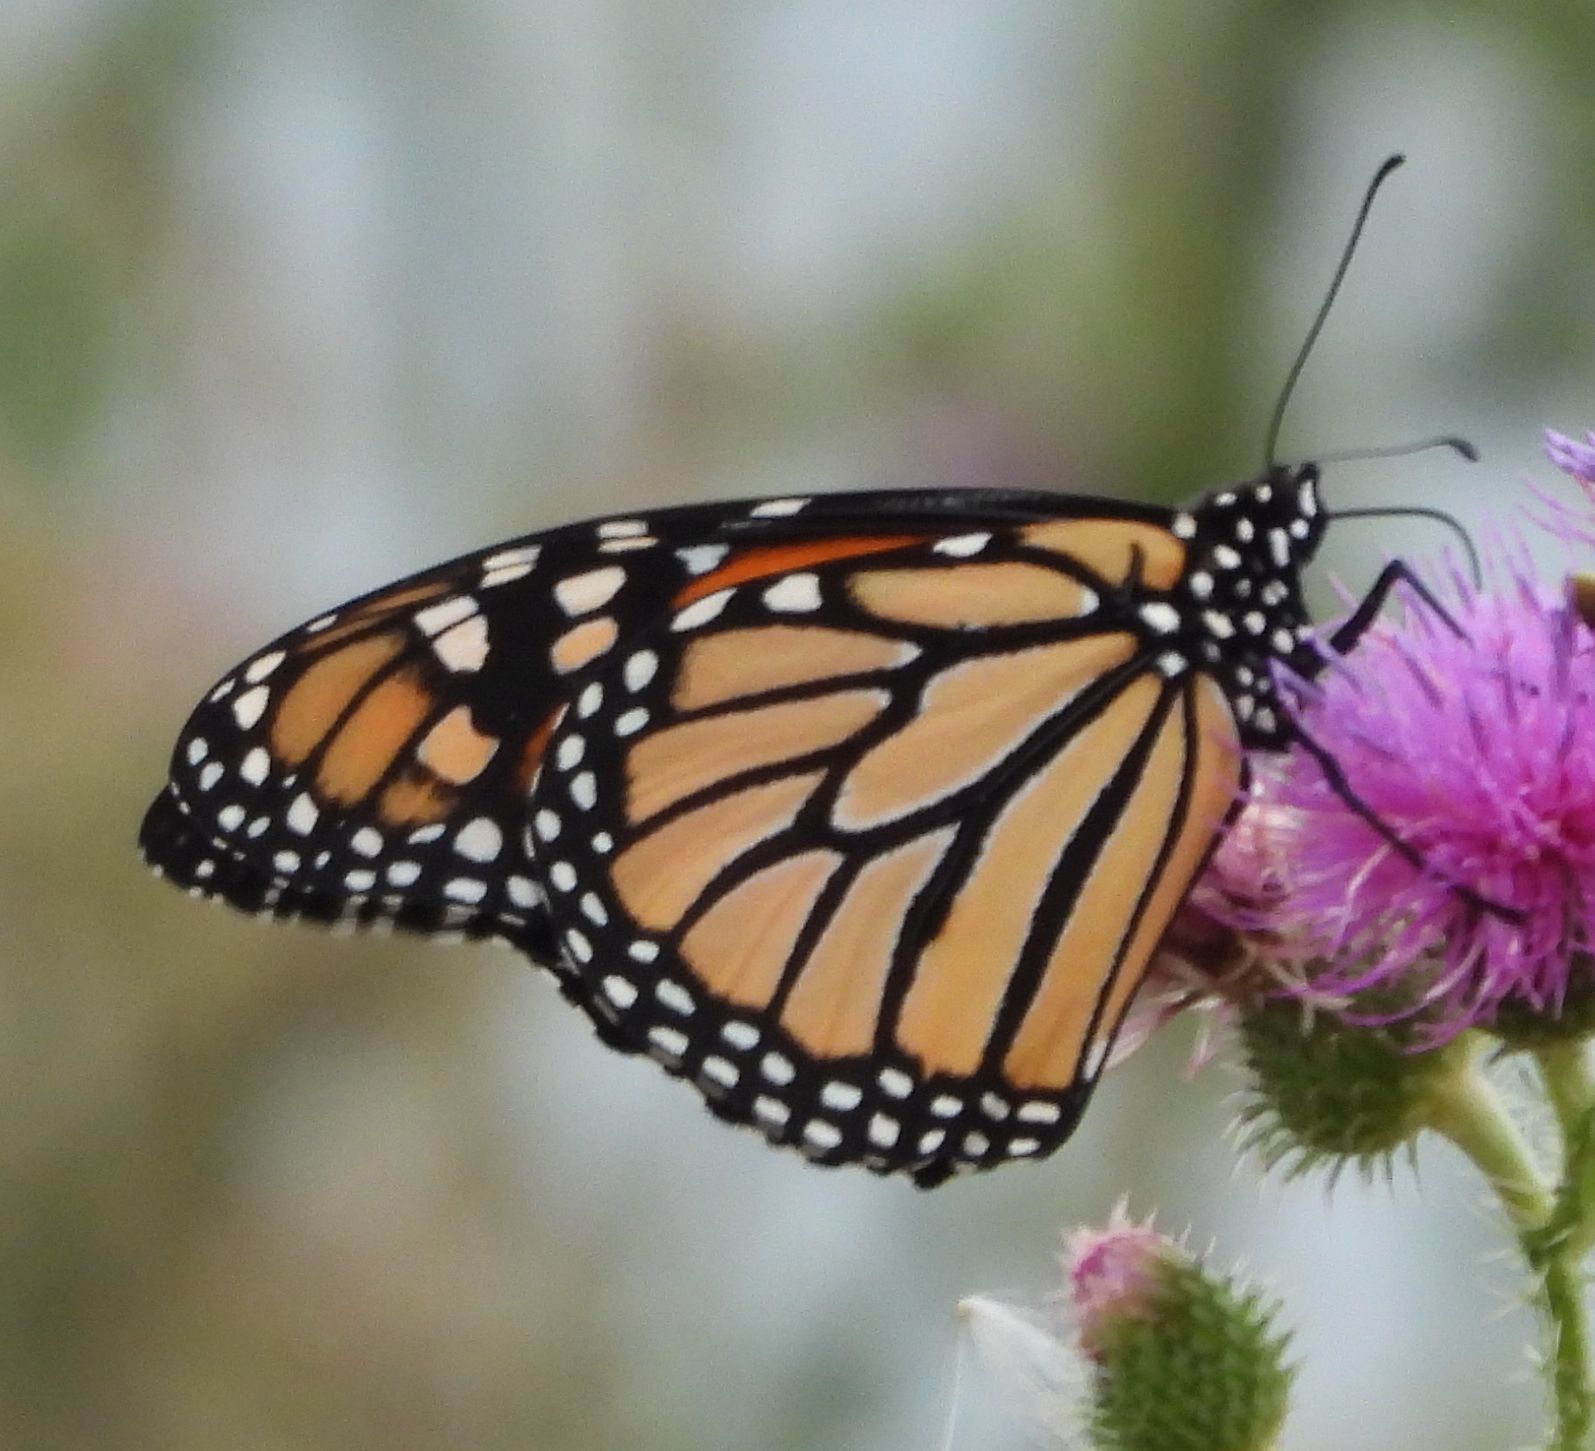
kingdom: Animalia
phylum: Arthropoda
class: Insecta
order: Lepidoptera
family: Nymphalidae
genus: Danaus
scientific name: Danaus plexippus
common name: Monarch
